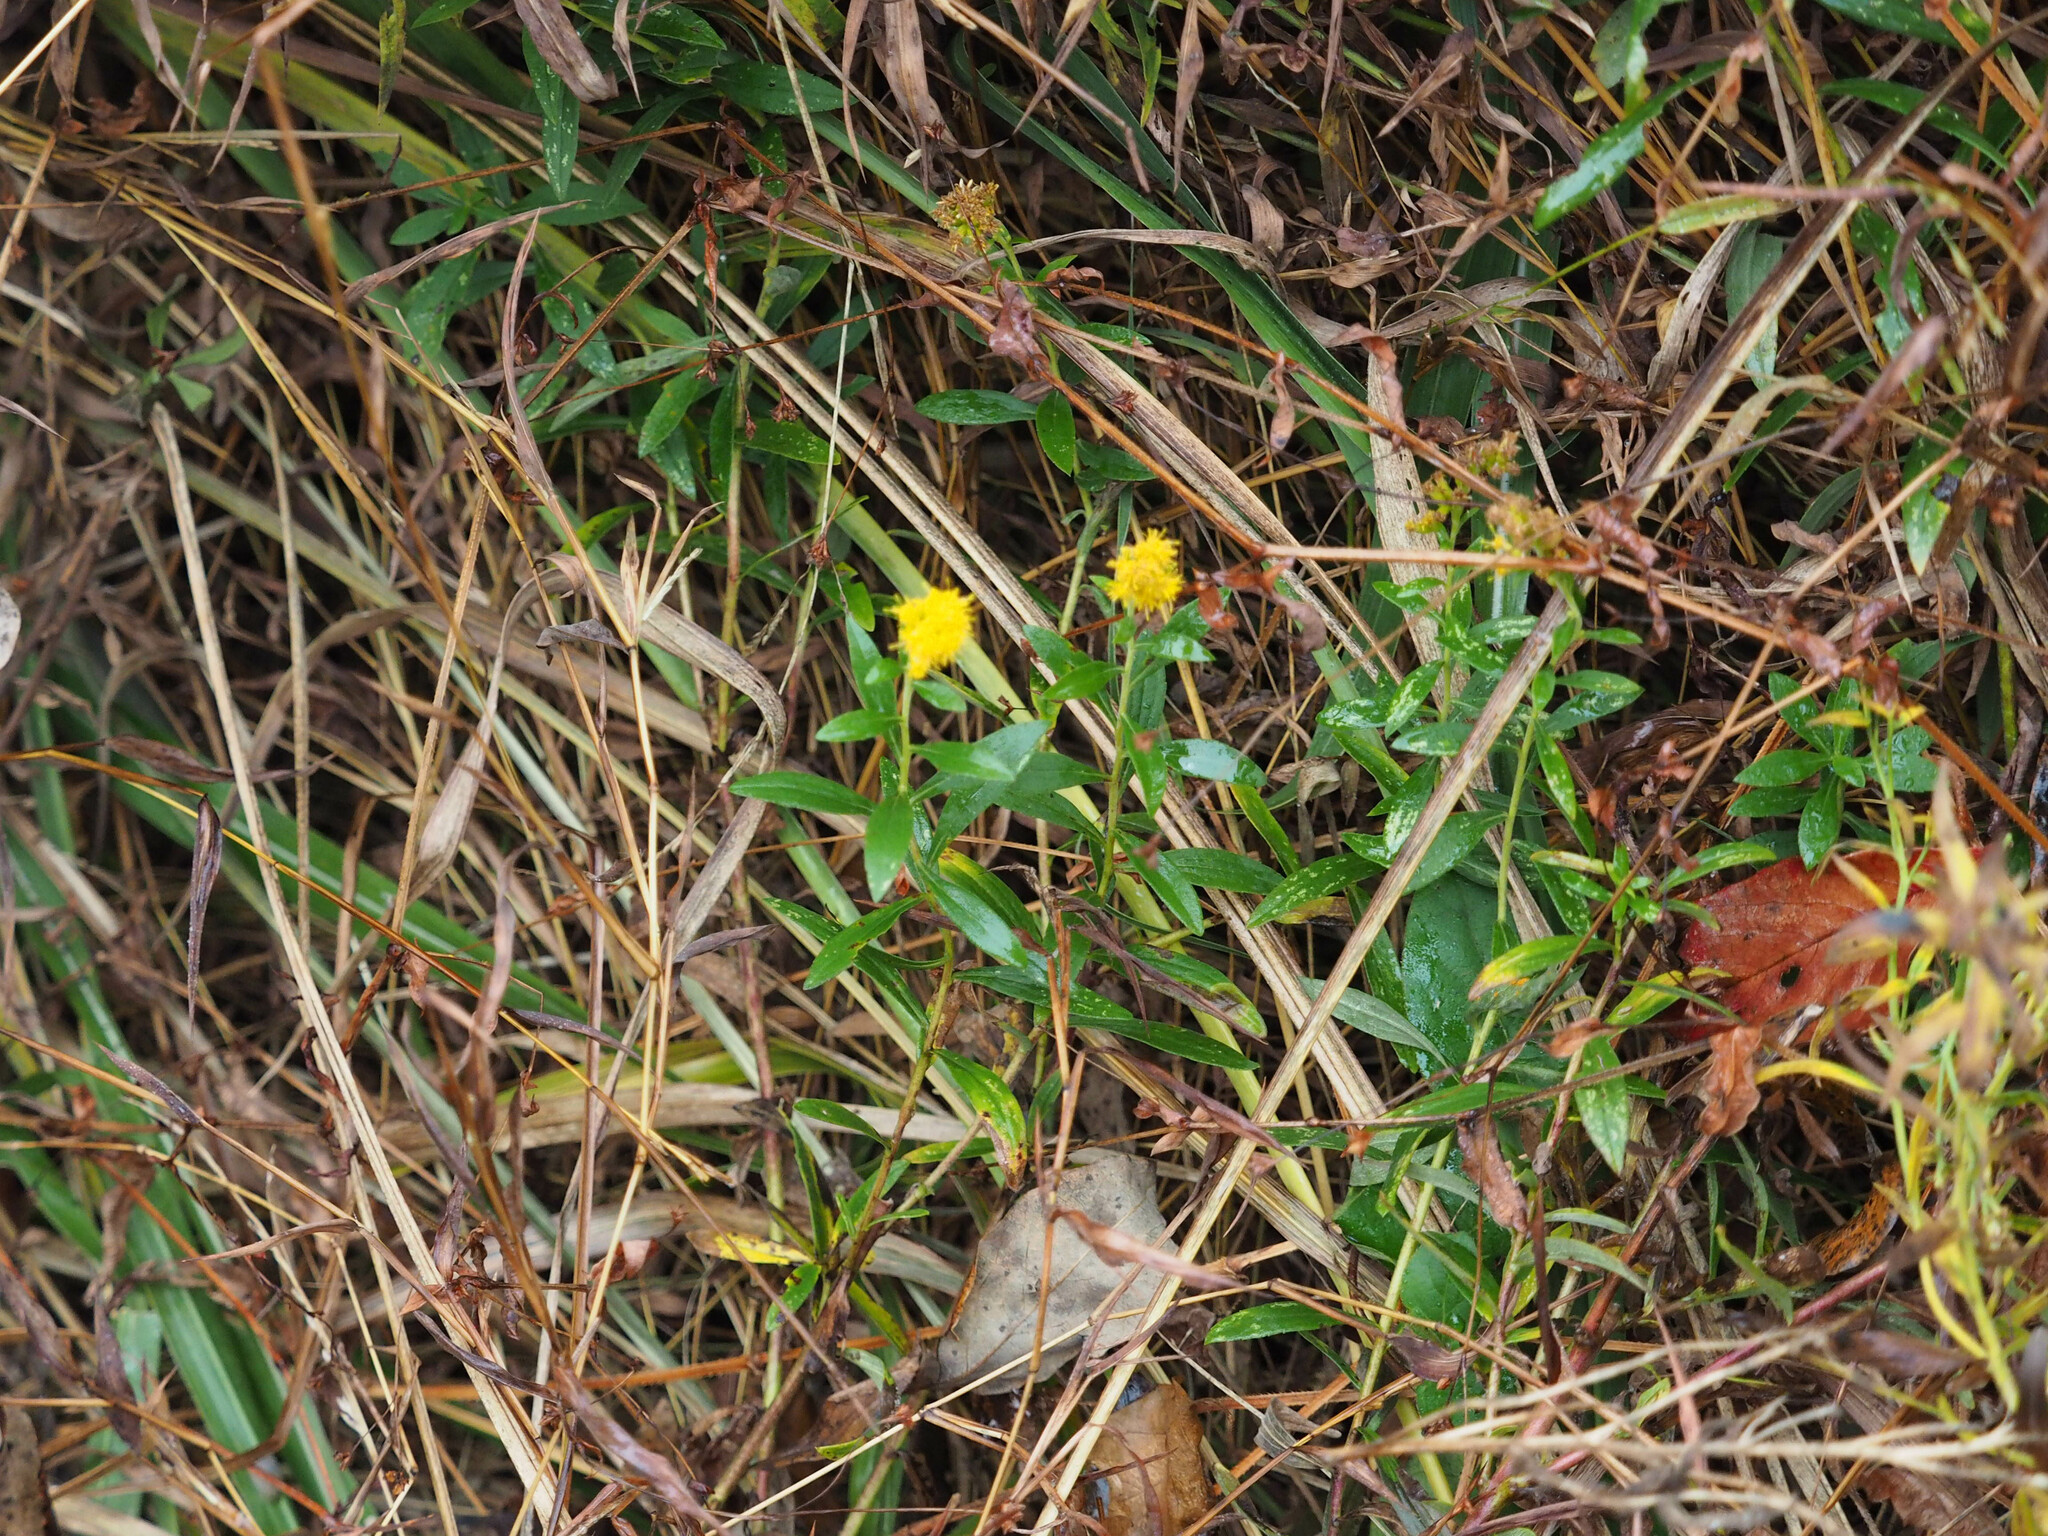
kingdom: Plantae
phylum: Tracheophyta
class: Magnoliopsida
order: Asterales
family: Asteraceae
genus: Solidago
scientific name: Solidago altissima
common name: Late goldenrod
